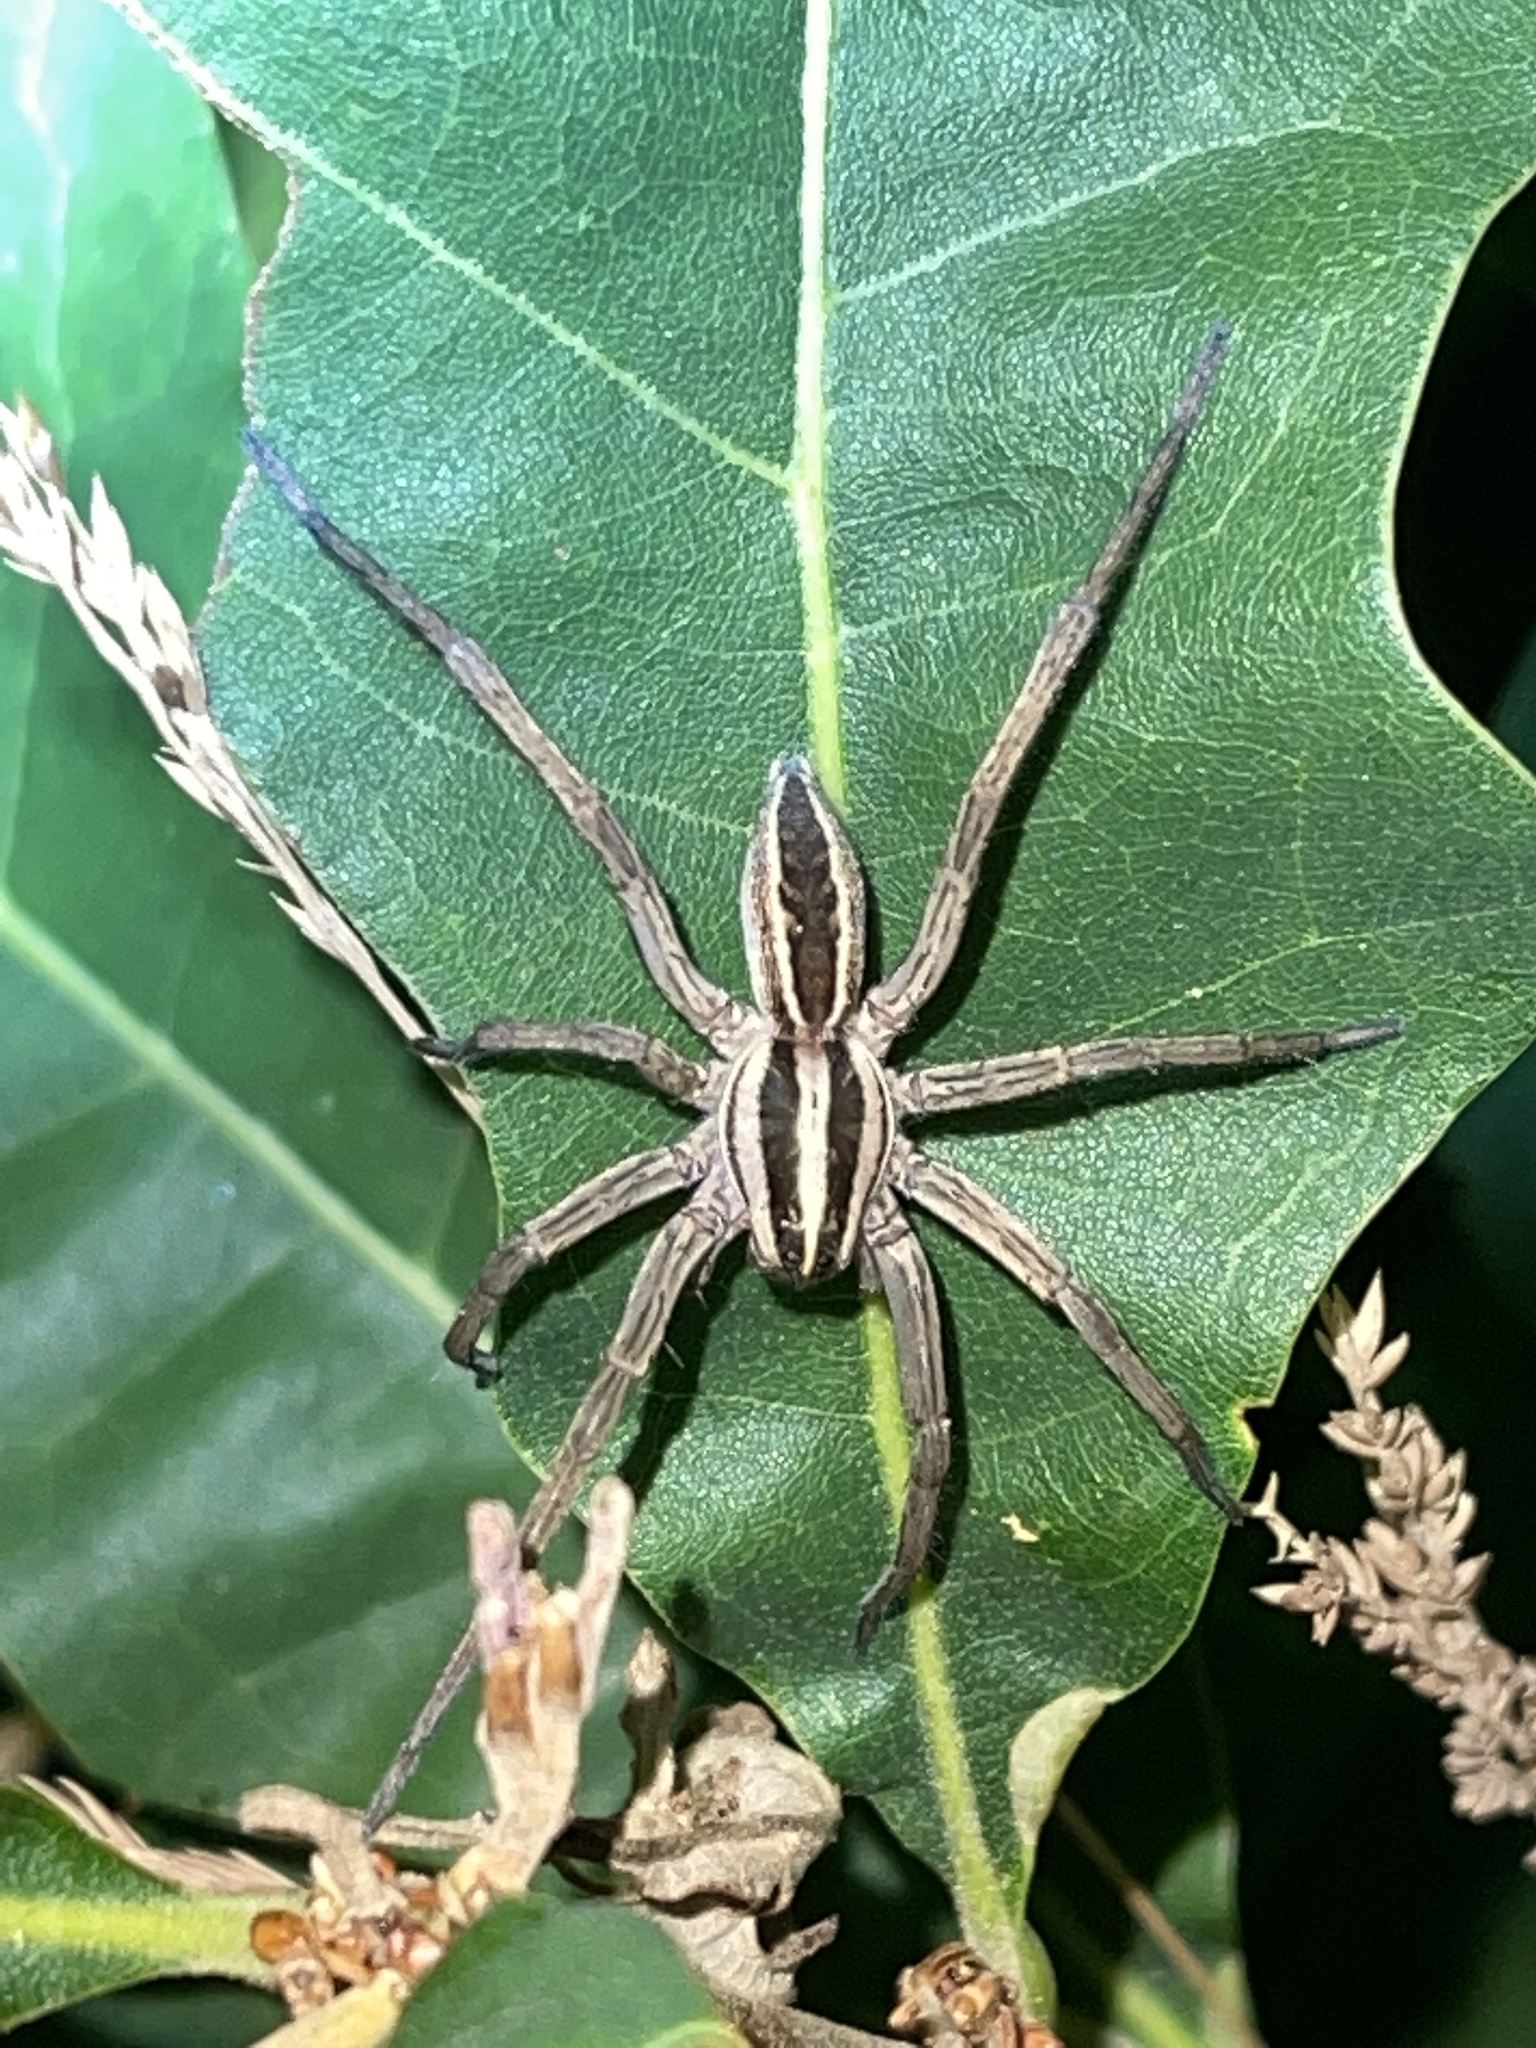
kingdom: Animalia
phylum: Arthropoda
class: Arachnida
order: Araneae
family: Lycosidae
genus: Rabidosa
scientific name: Rabidosa rabida
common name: Rabid wolf spider
